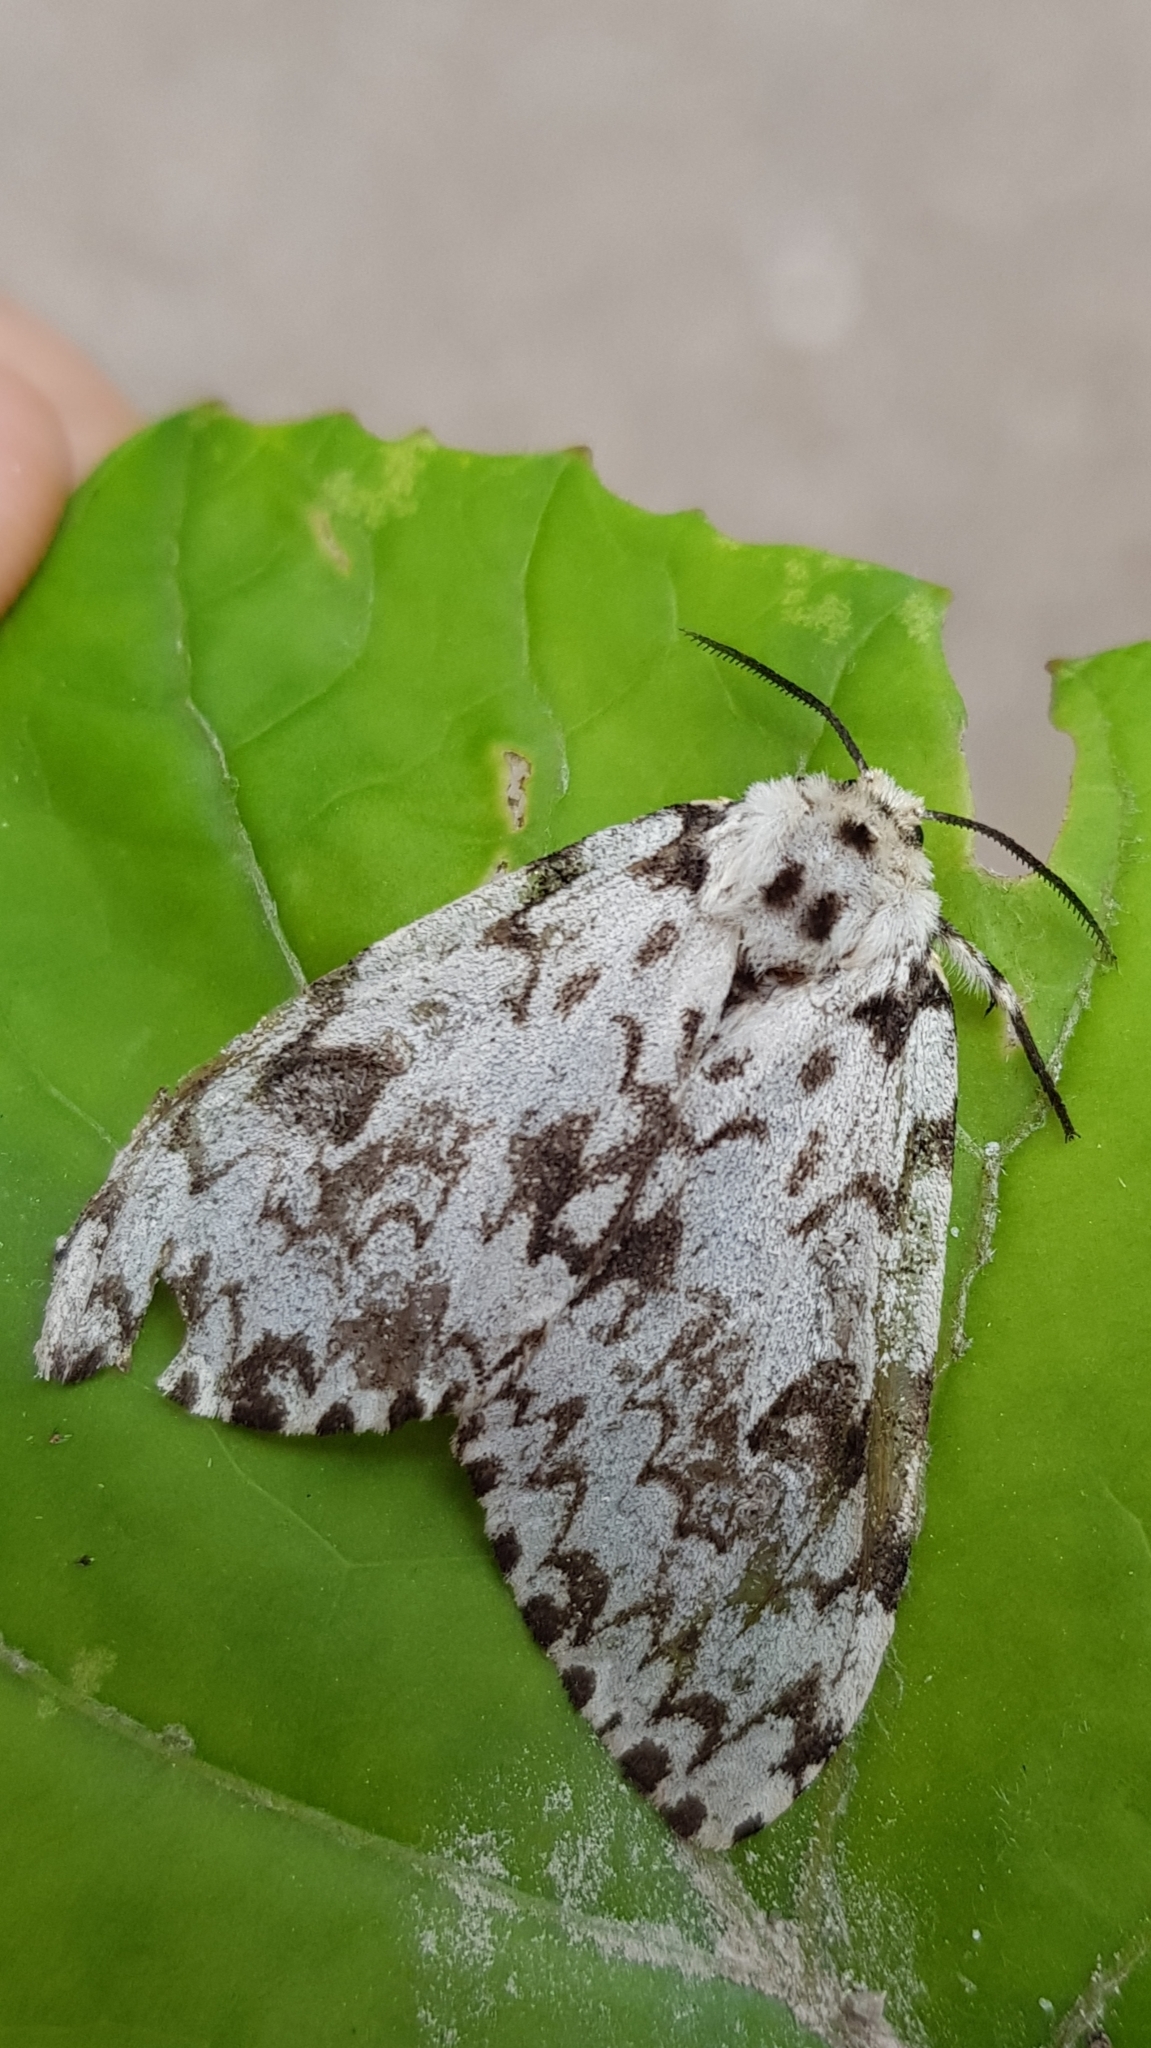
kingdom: Animalia
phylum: Arthropoda
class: Insecta
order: Lepidoptera
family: Erebidae
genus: Lymantria
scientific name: Lymantria monacha
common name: Black arches
